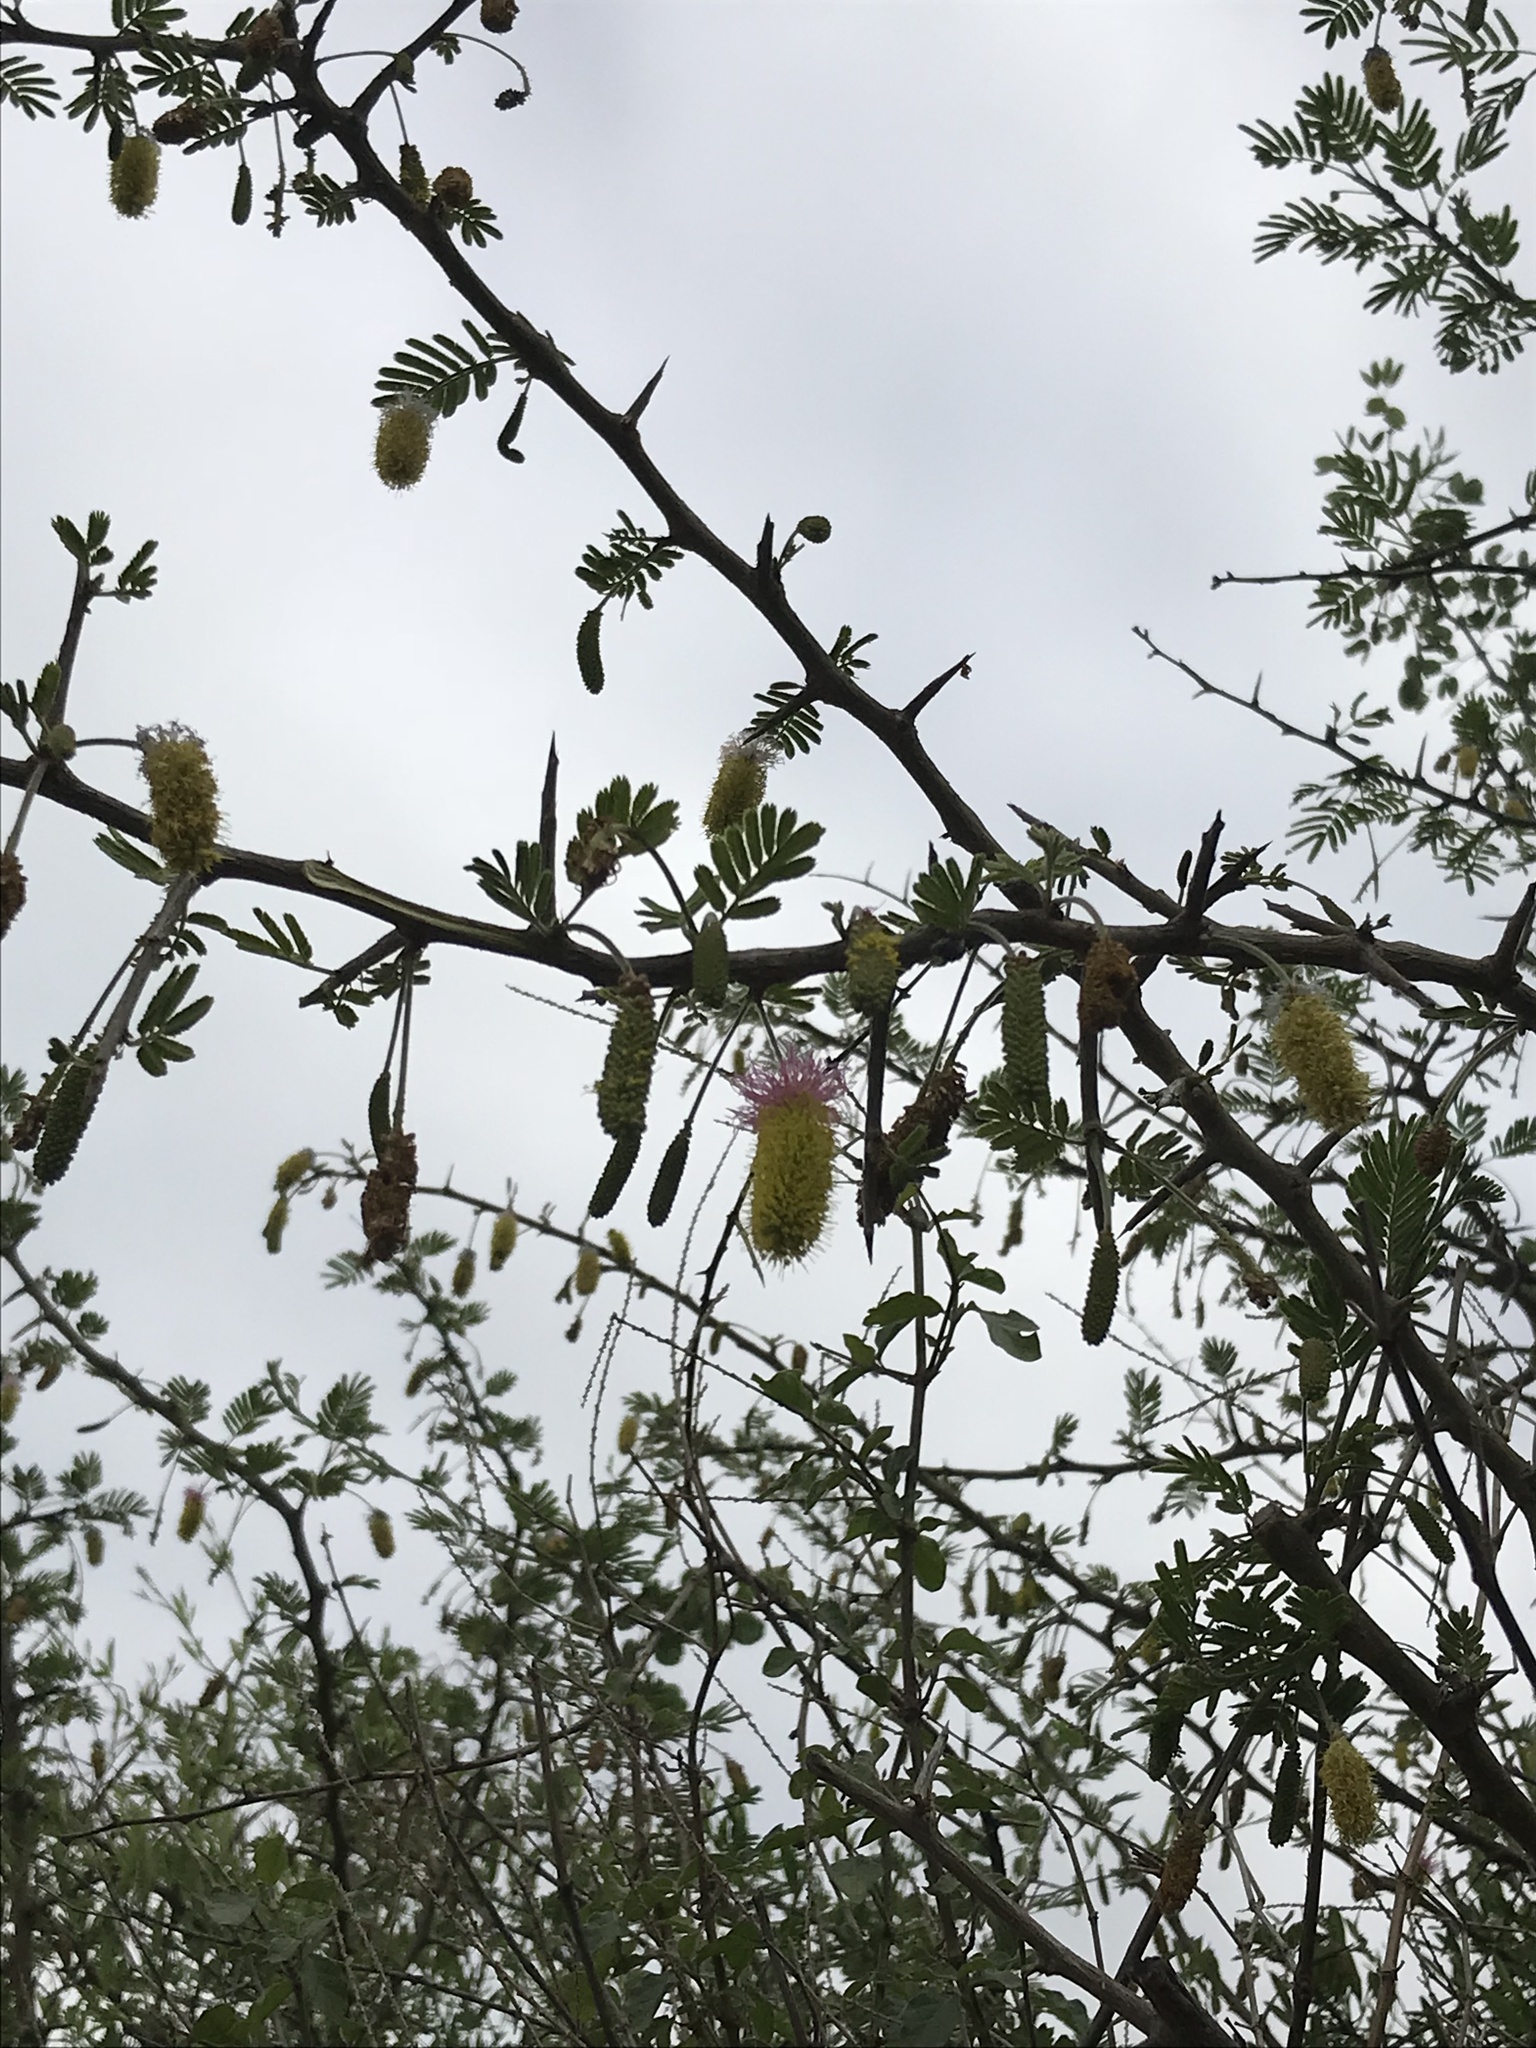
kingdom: Plantae
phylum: Tracheophyta
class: Magnoliopsida
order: Fabales
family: Fabaceae
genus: Dichrostachys
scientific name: Dichrostachys cinerea
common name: Sicklebush
